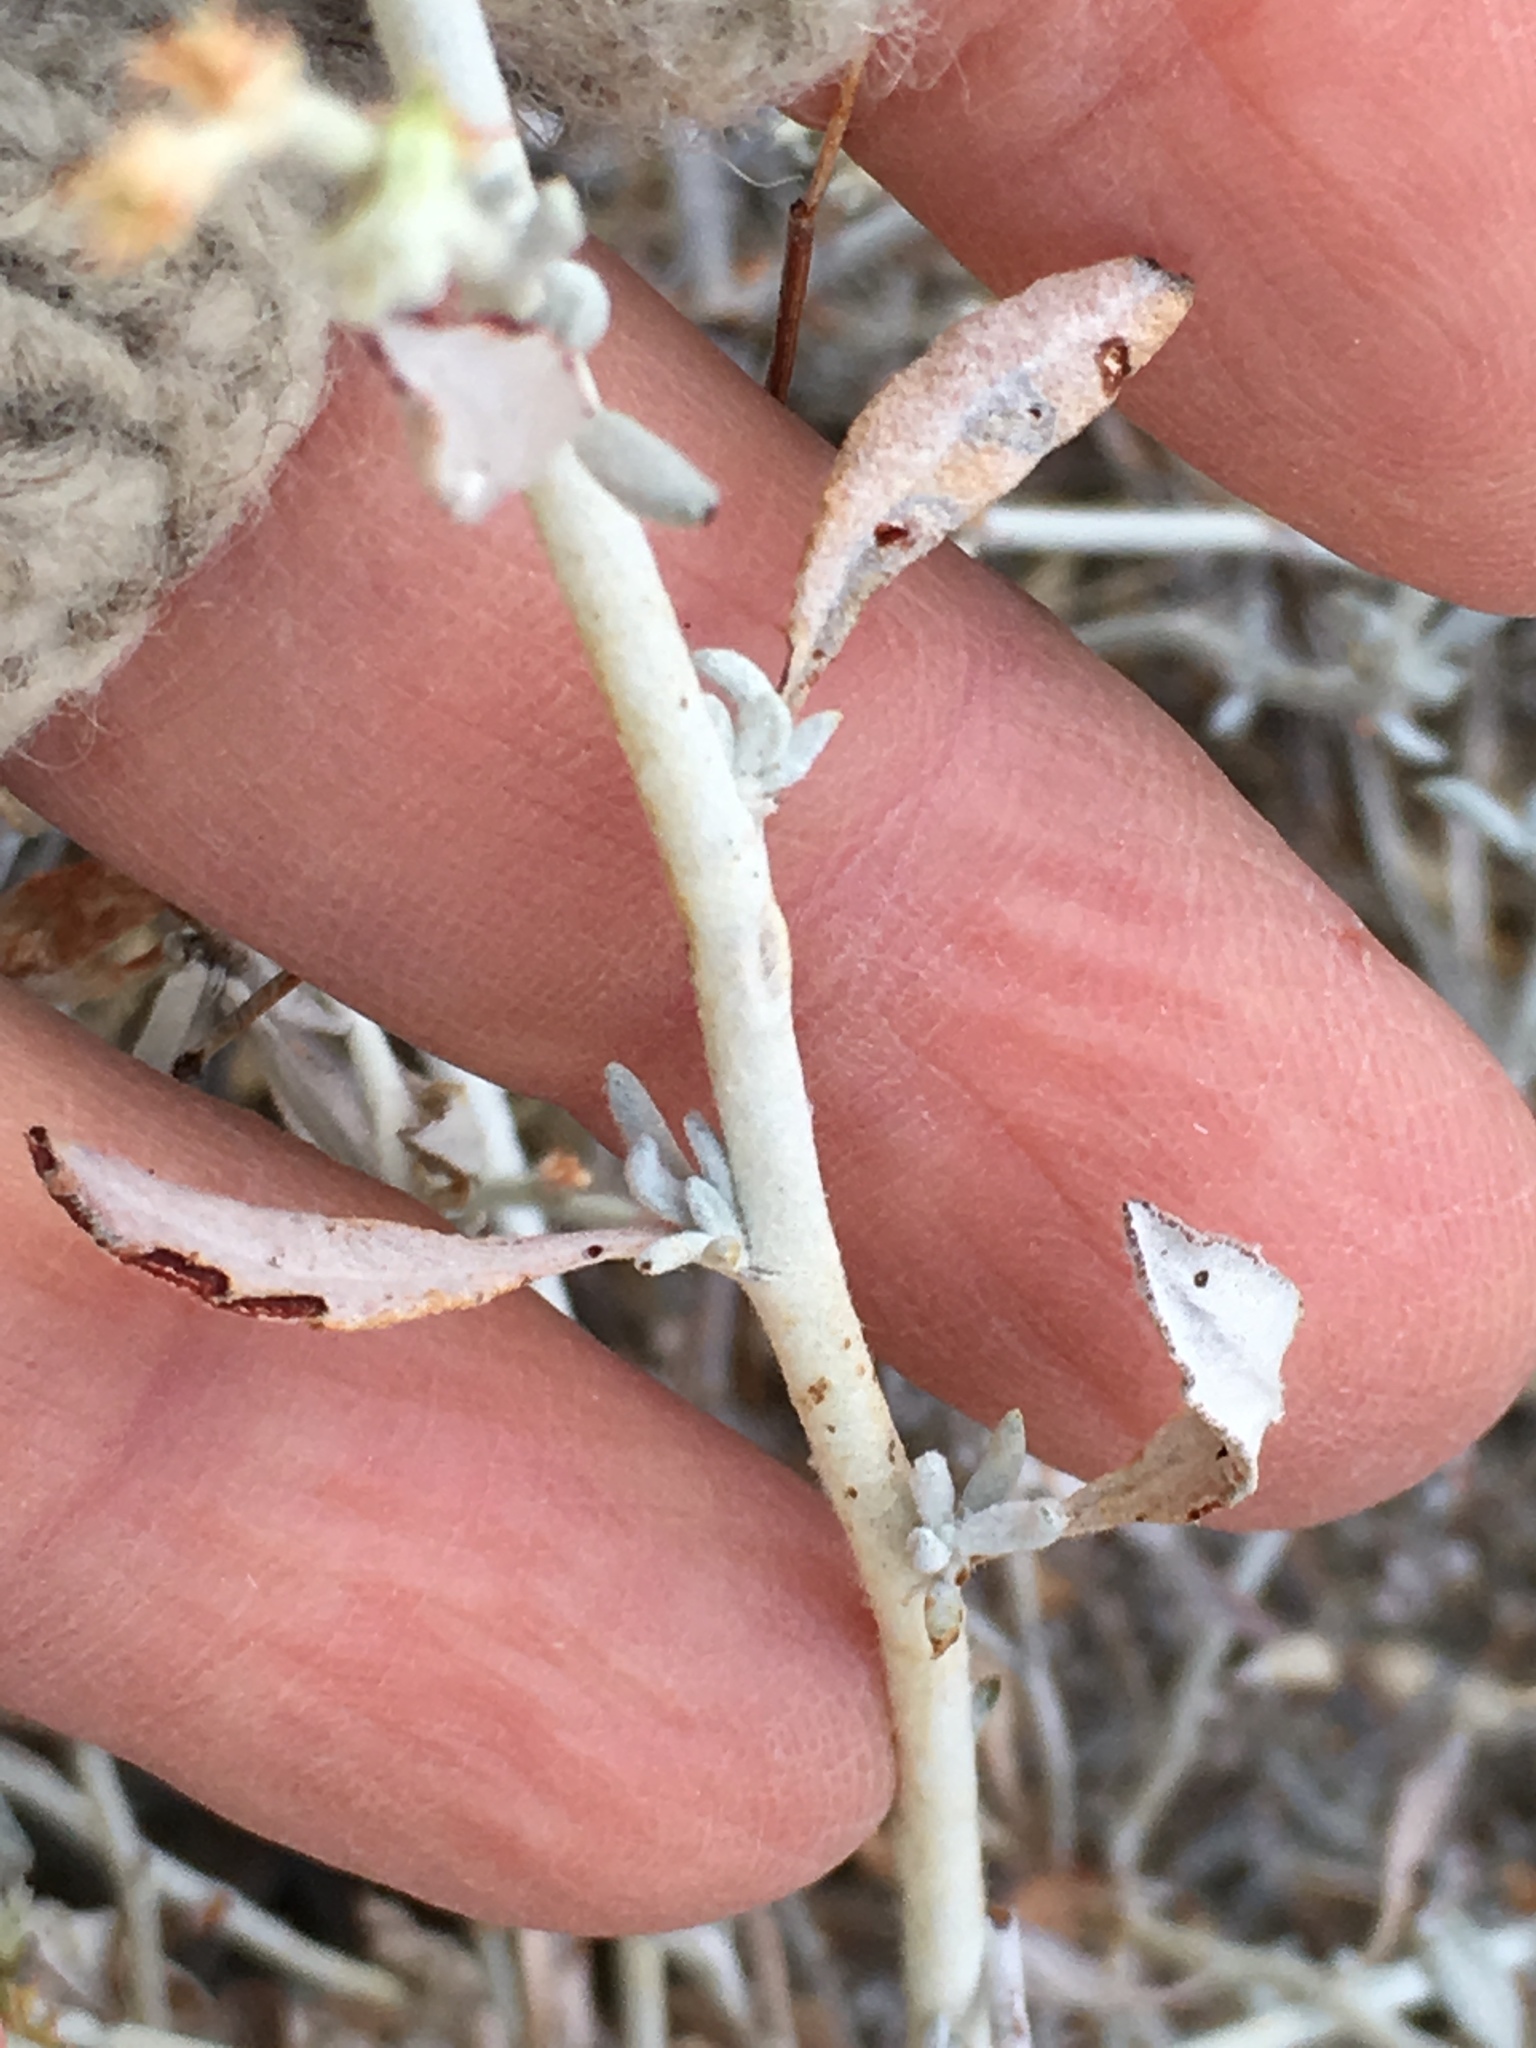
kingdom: Plantae
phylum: Tracheophyta
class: Magnoliopsida
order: Caryophyllales
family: Polygonaceae
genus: Eriogonum
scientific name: Eriogonum wrightii
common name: Bastard-sage
